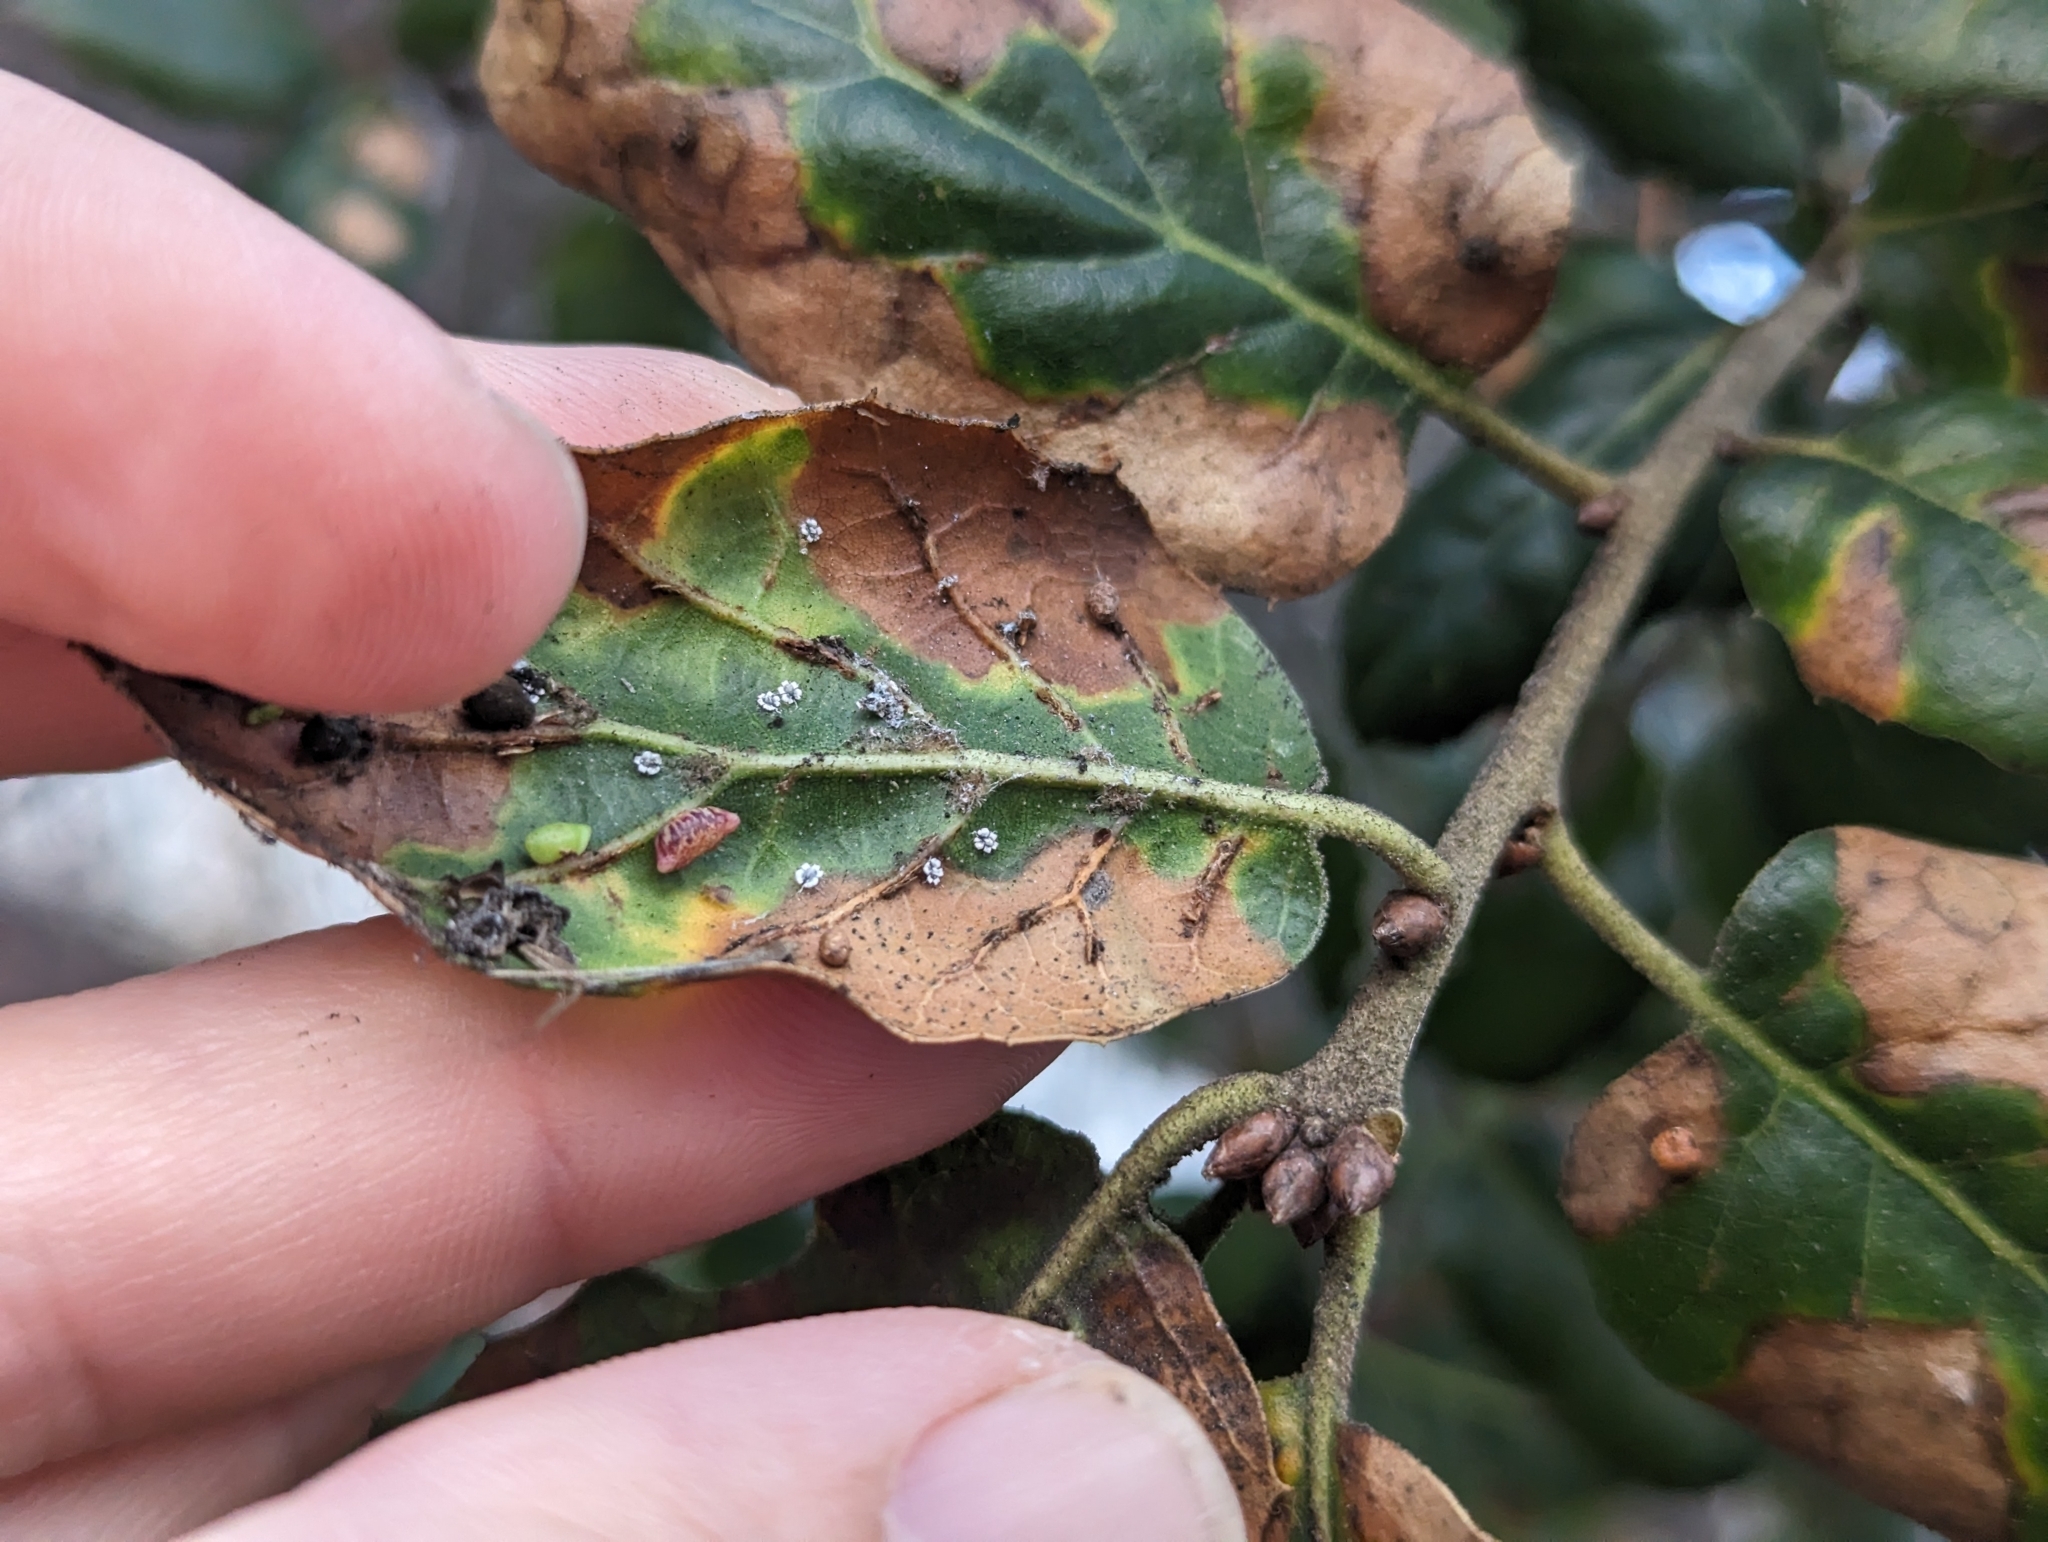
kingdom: Animalia
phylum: Arthropoda
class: Insecta
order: Hymenoptera
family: Cynipidae
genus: Dryocosmus
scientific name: Dryocosmus
